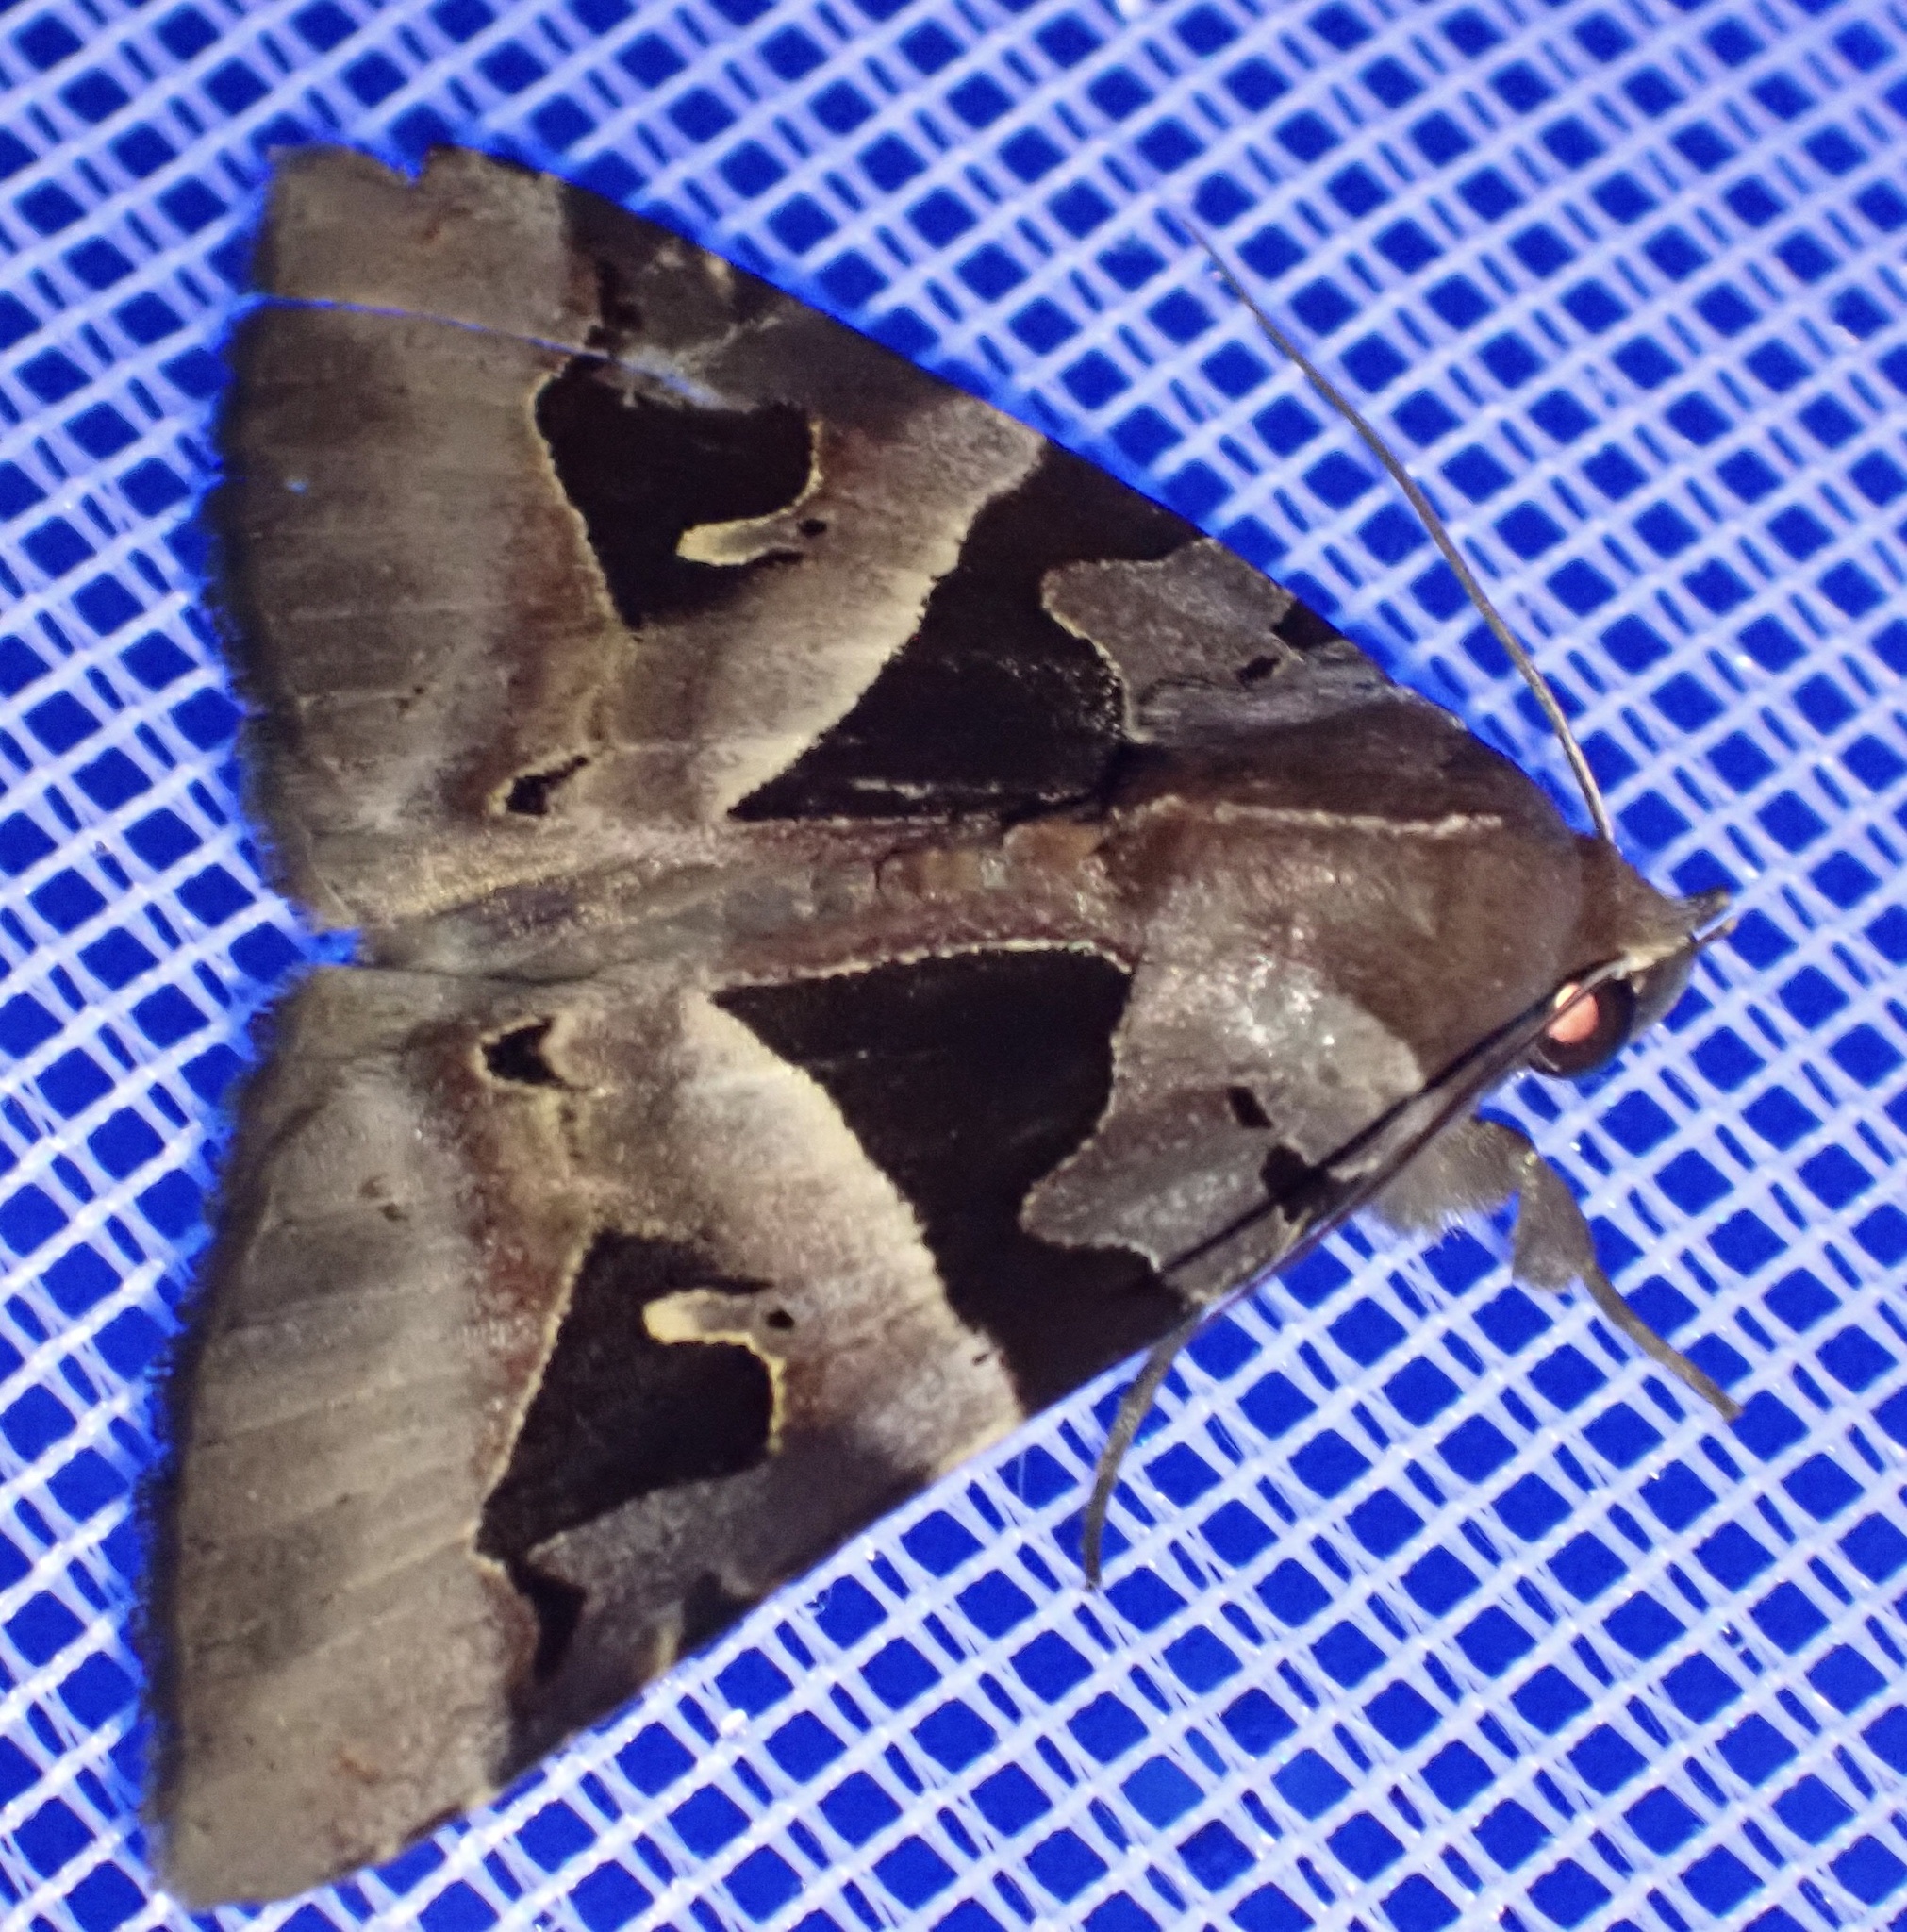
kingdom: Animalia
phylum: Arthropoda
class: Insecta
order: Lepidoptera
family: Erebidae
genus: Avatha
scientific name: Avatha pulcherrima
